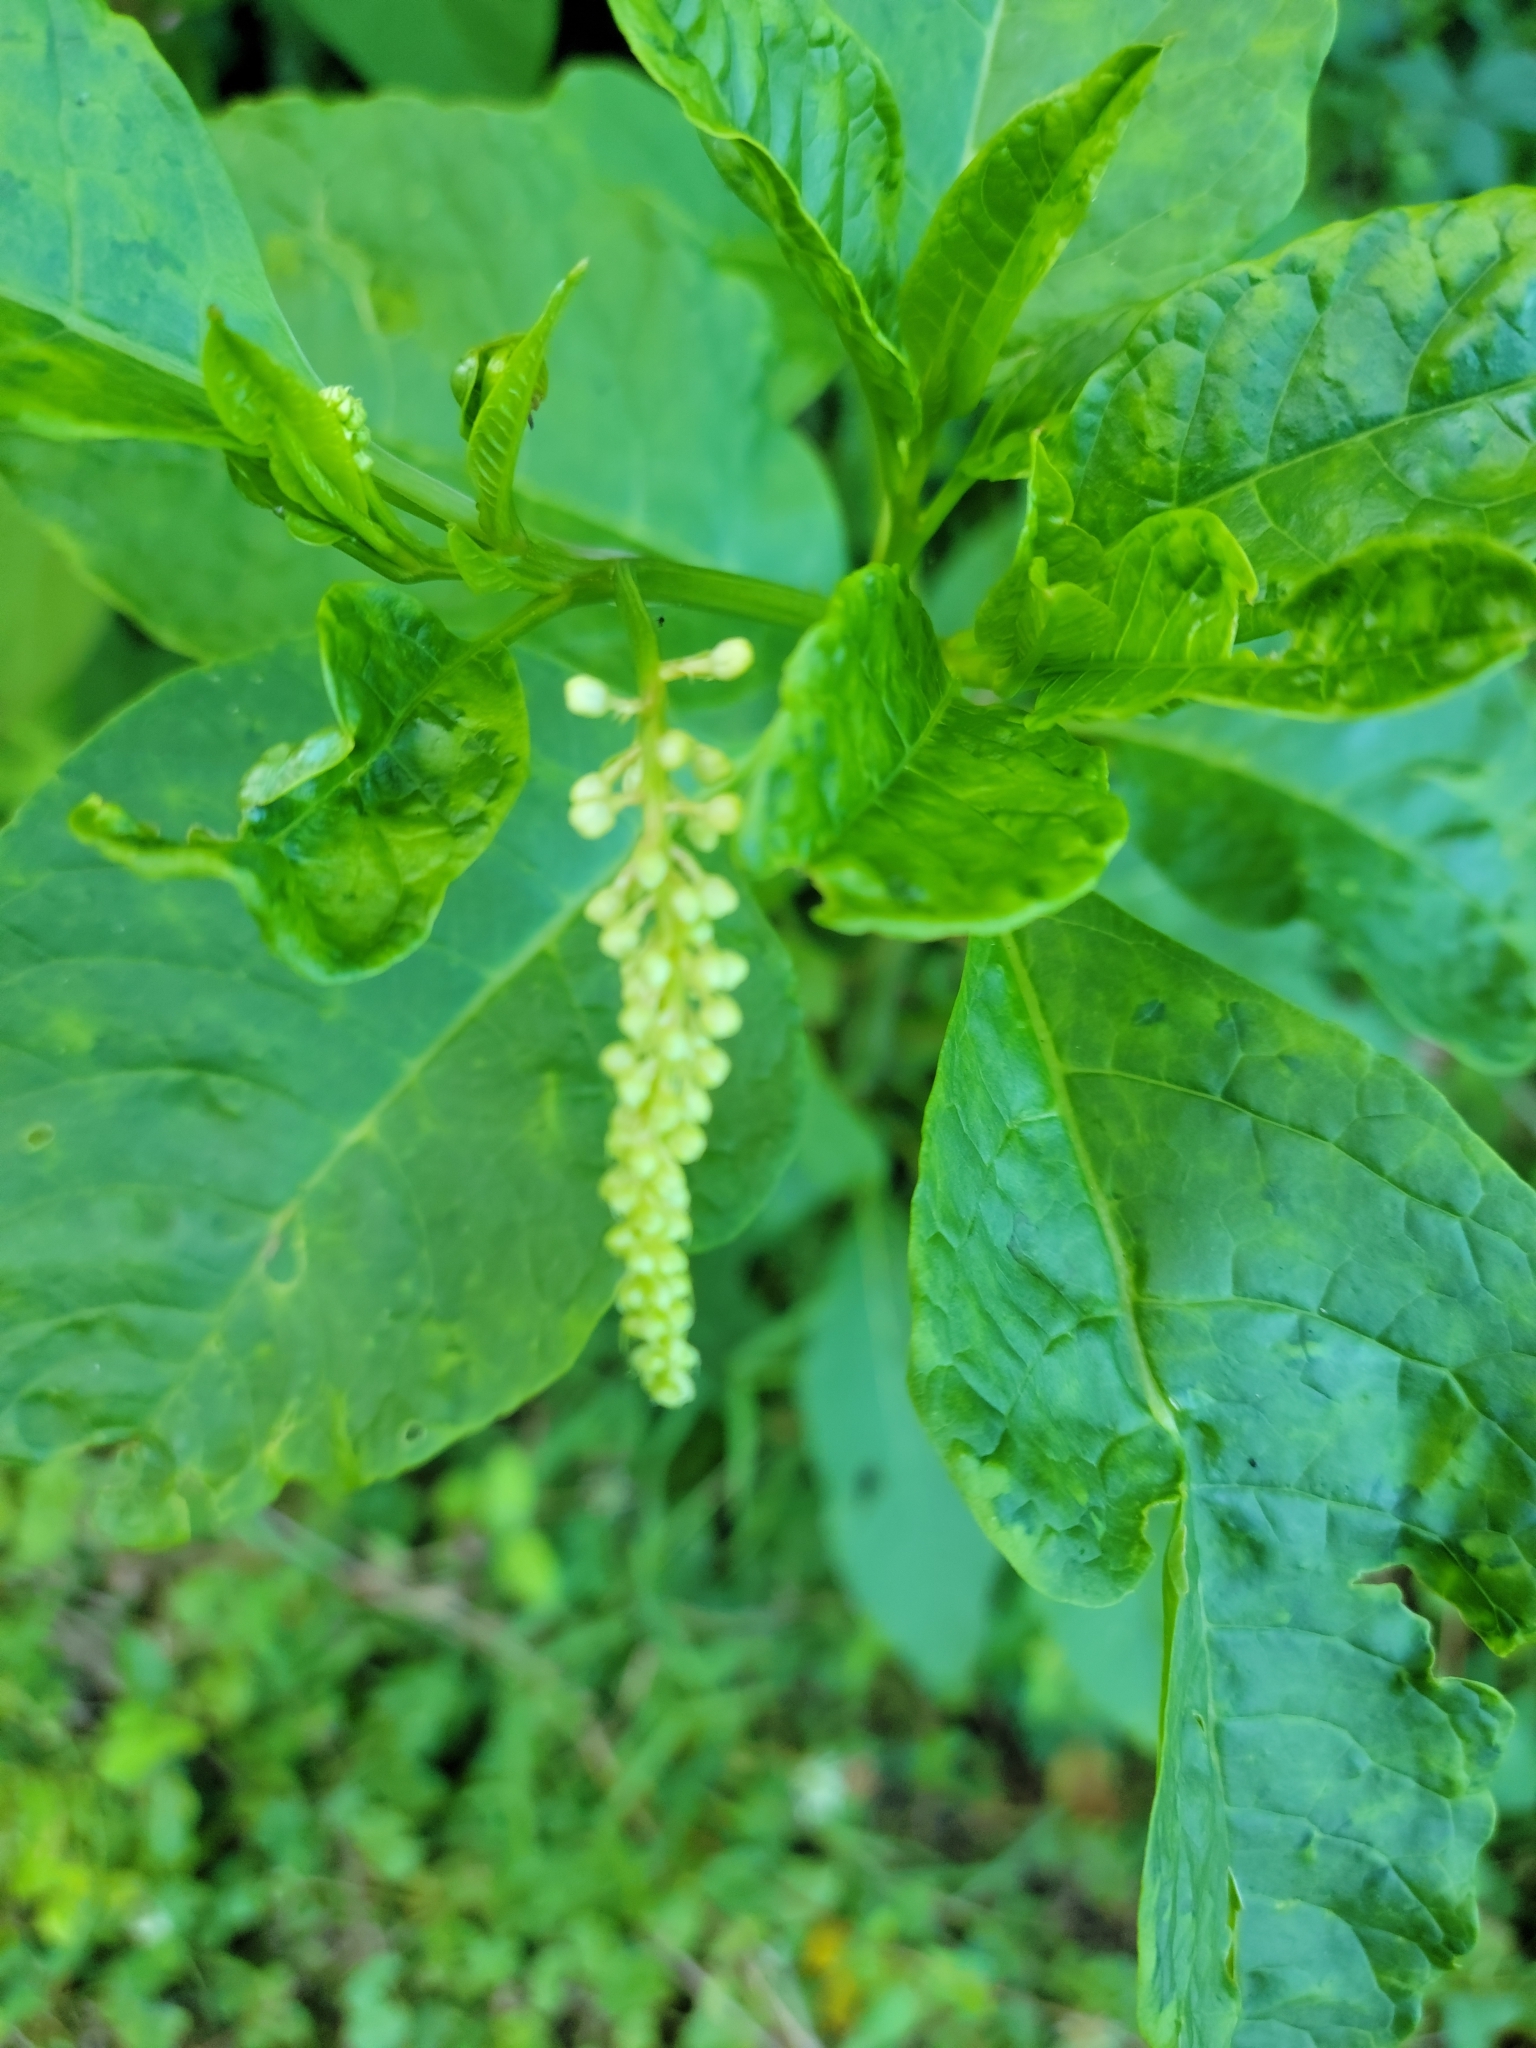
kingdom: Plantae
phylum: Tracheophyta
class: Magnoliopsida
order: Caryophyllales
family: Phytolaccaceae
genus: Phytolacca
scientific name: Phytolacca americana
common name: American pokeweed
